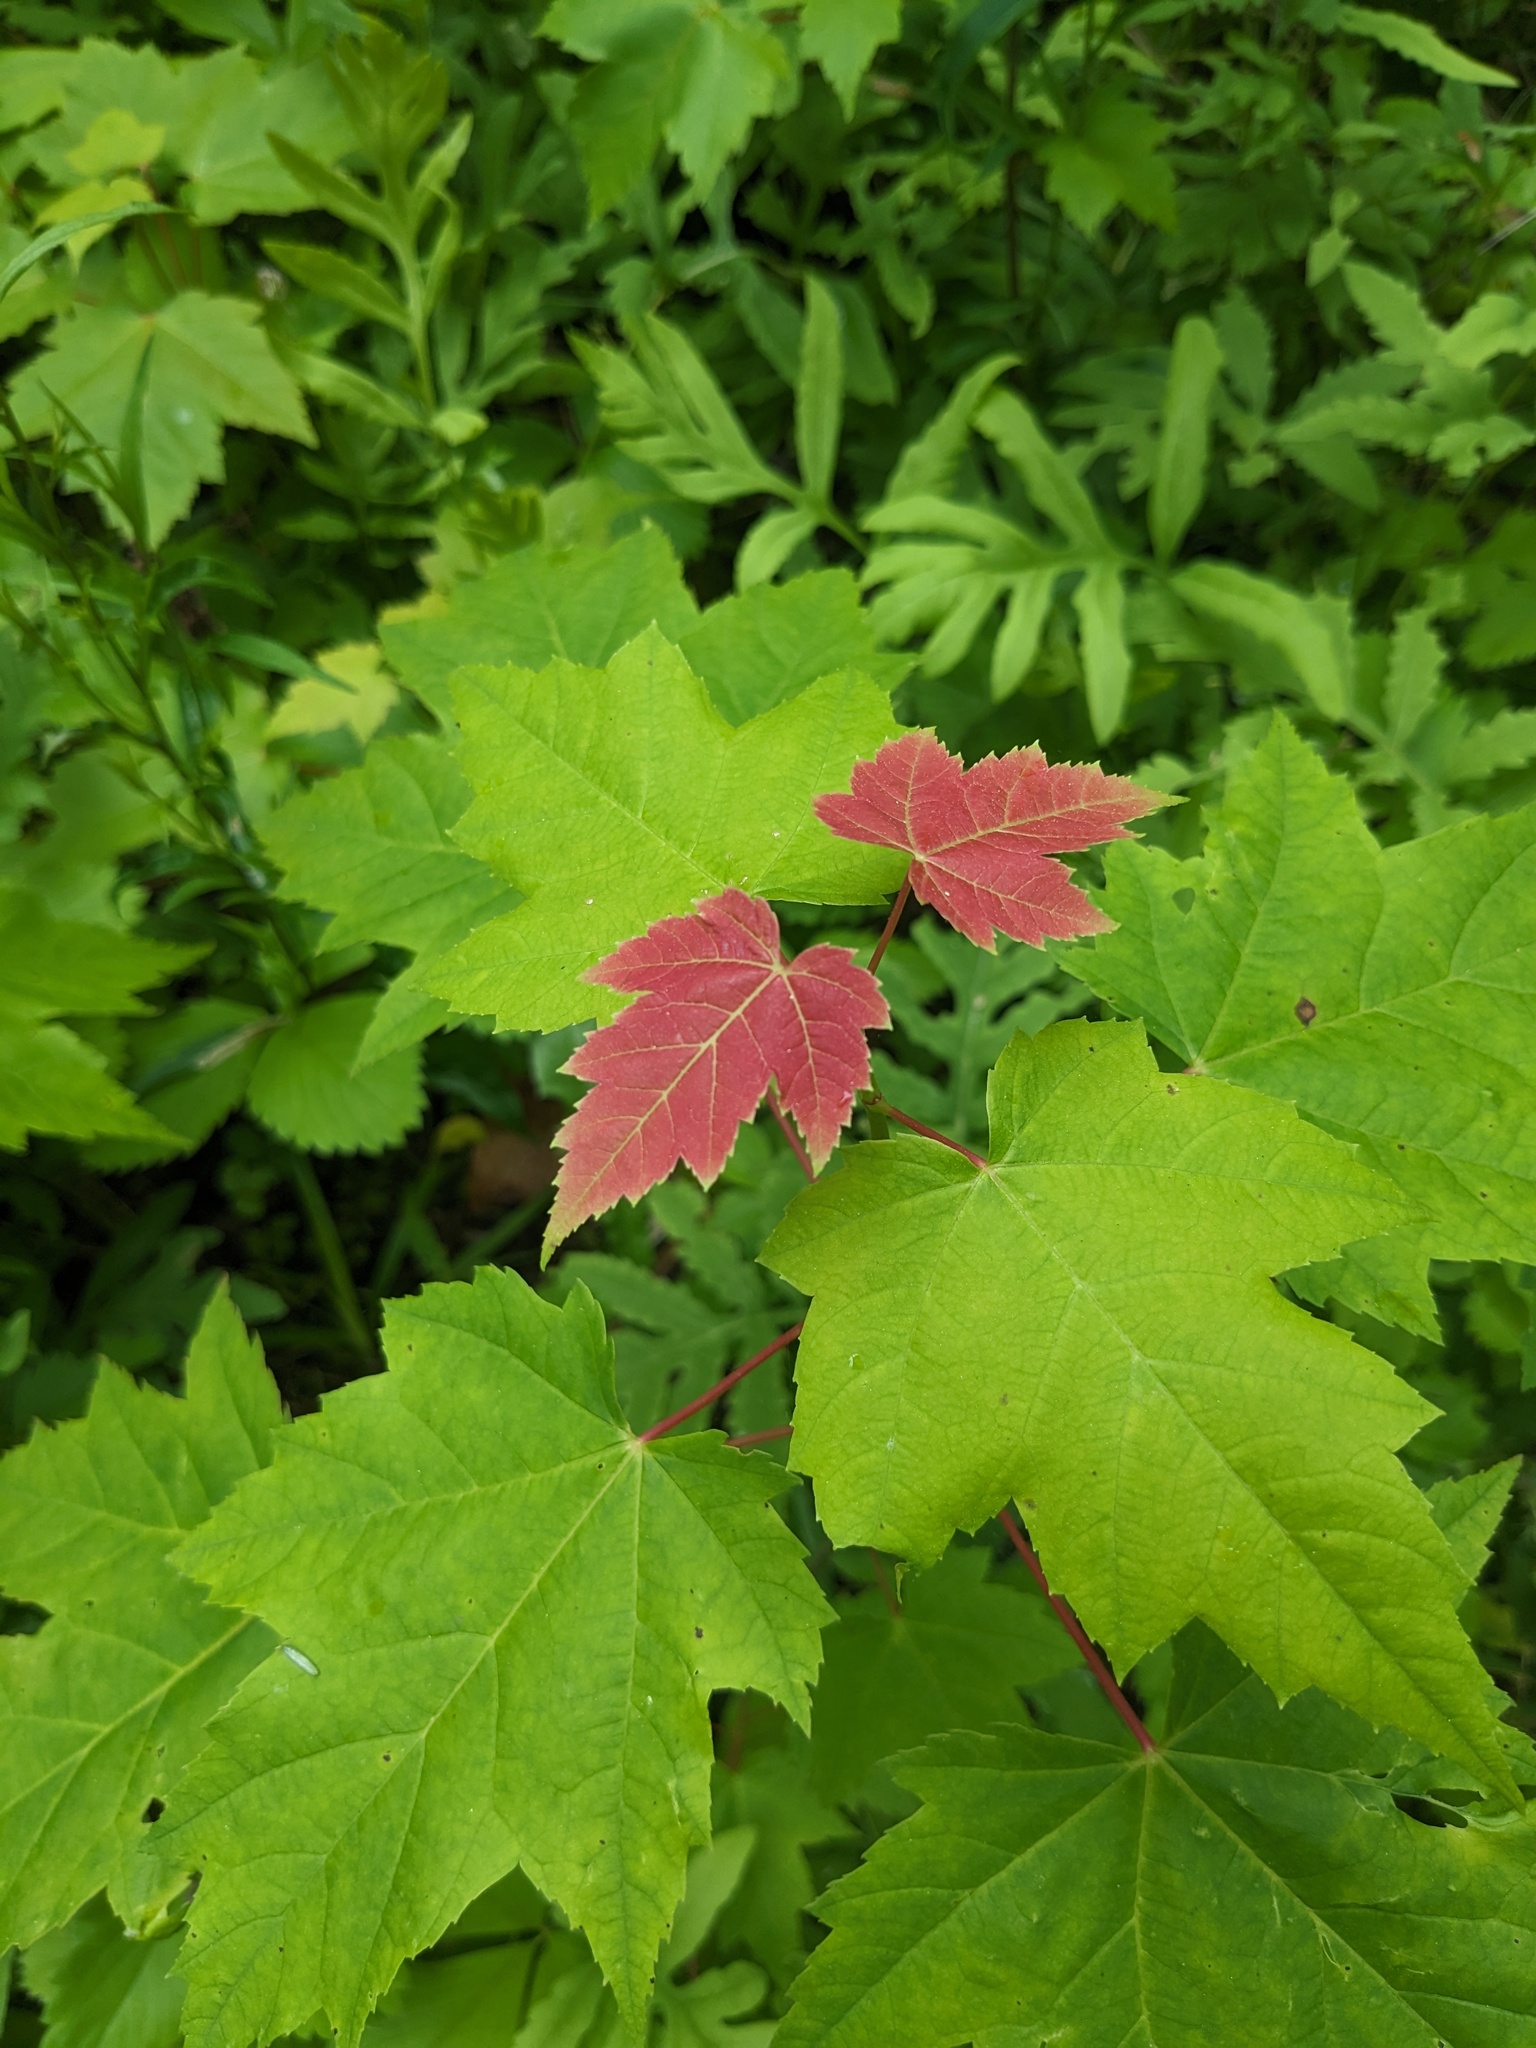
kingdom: Plantae
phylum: Tracheophyta
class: Magnoliopsida
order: Sapindales
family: Sapindaceae
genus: Acer
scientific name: Acer rubrum
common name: Red maple
